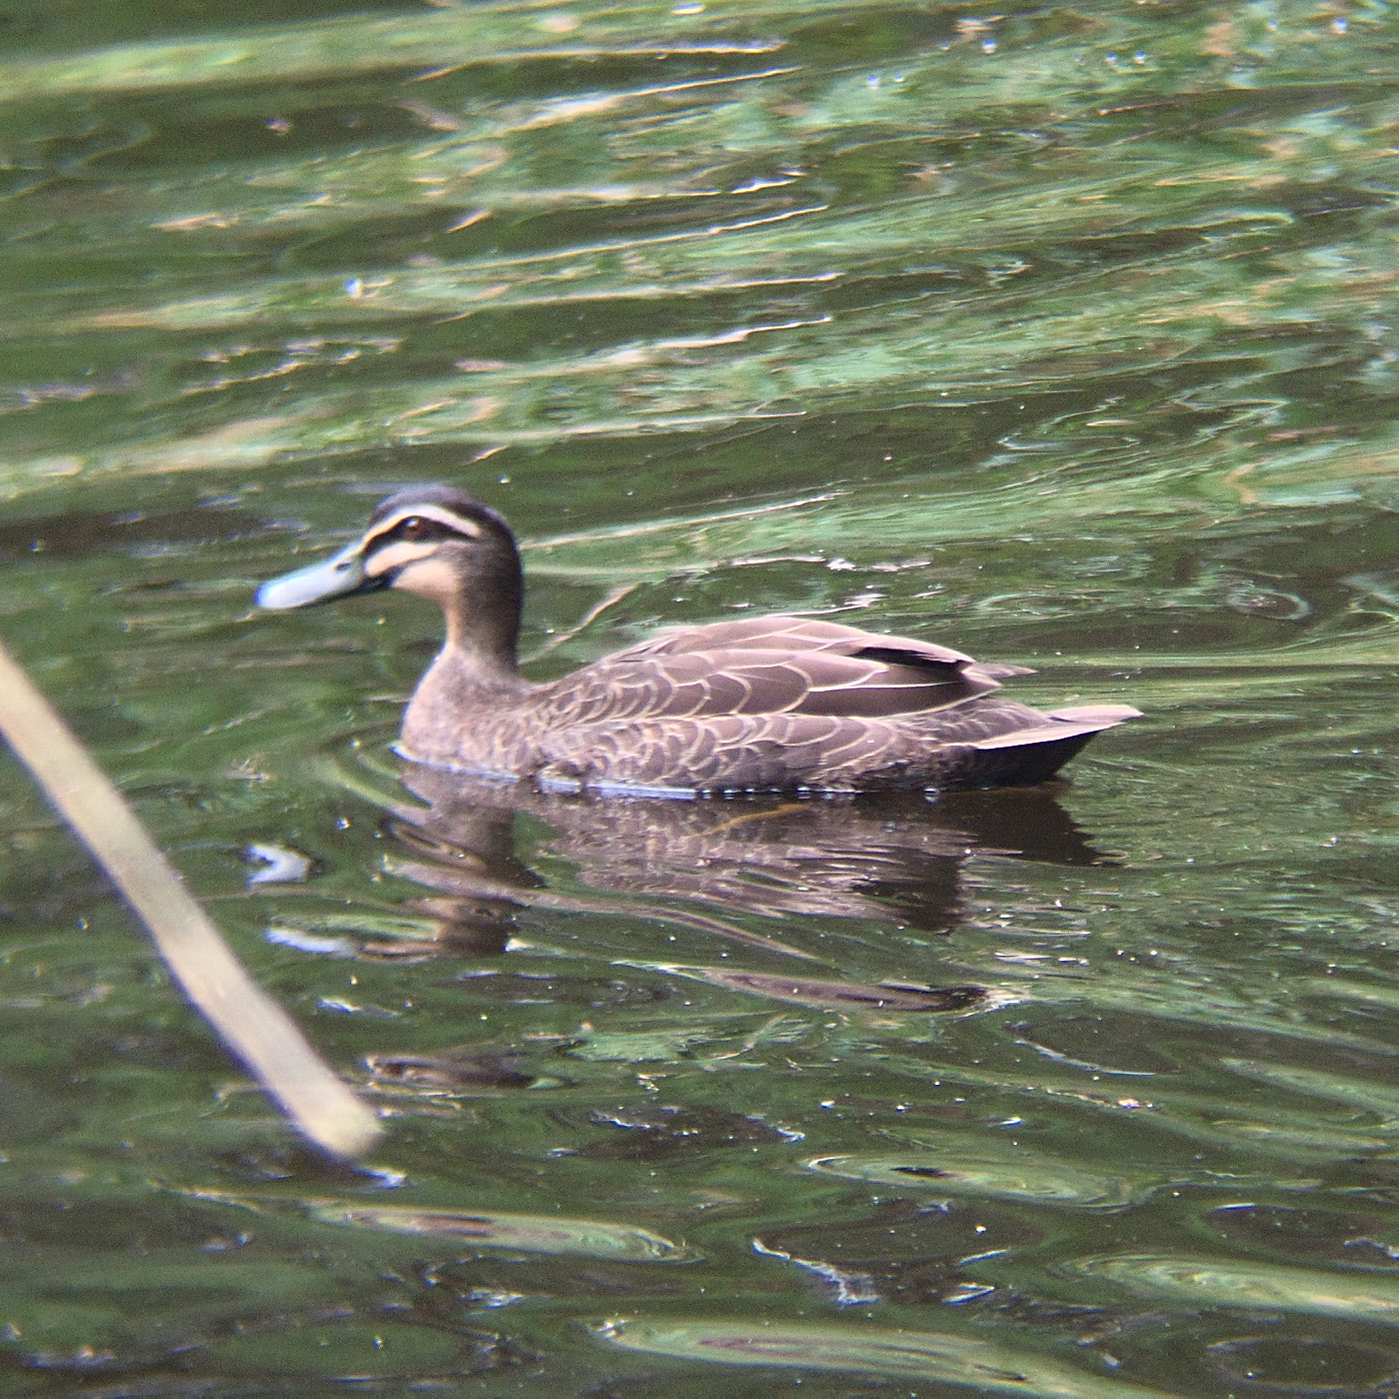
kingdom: Animalia
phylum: Chordata
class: Aves
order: Anseriformes
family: Anatidae
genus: Anas
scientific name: Anas superciliosa
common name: Pacific black duck
